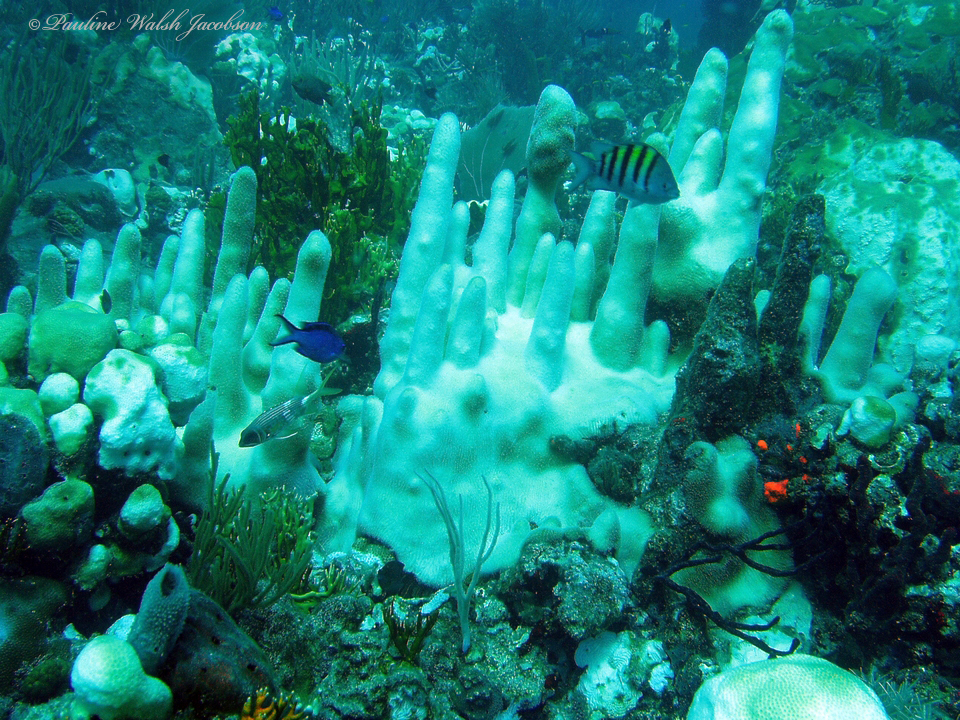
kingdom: Animalia
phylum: Cnidaria
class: Anthozoa
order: Scleractinia
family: Meandrinidae
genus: Dendrogyra
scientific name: Dendrogyra cylindrus
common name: Pillar coral
